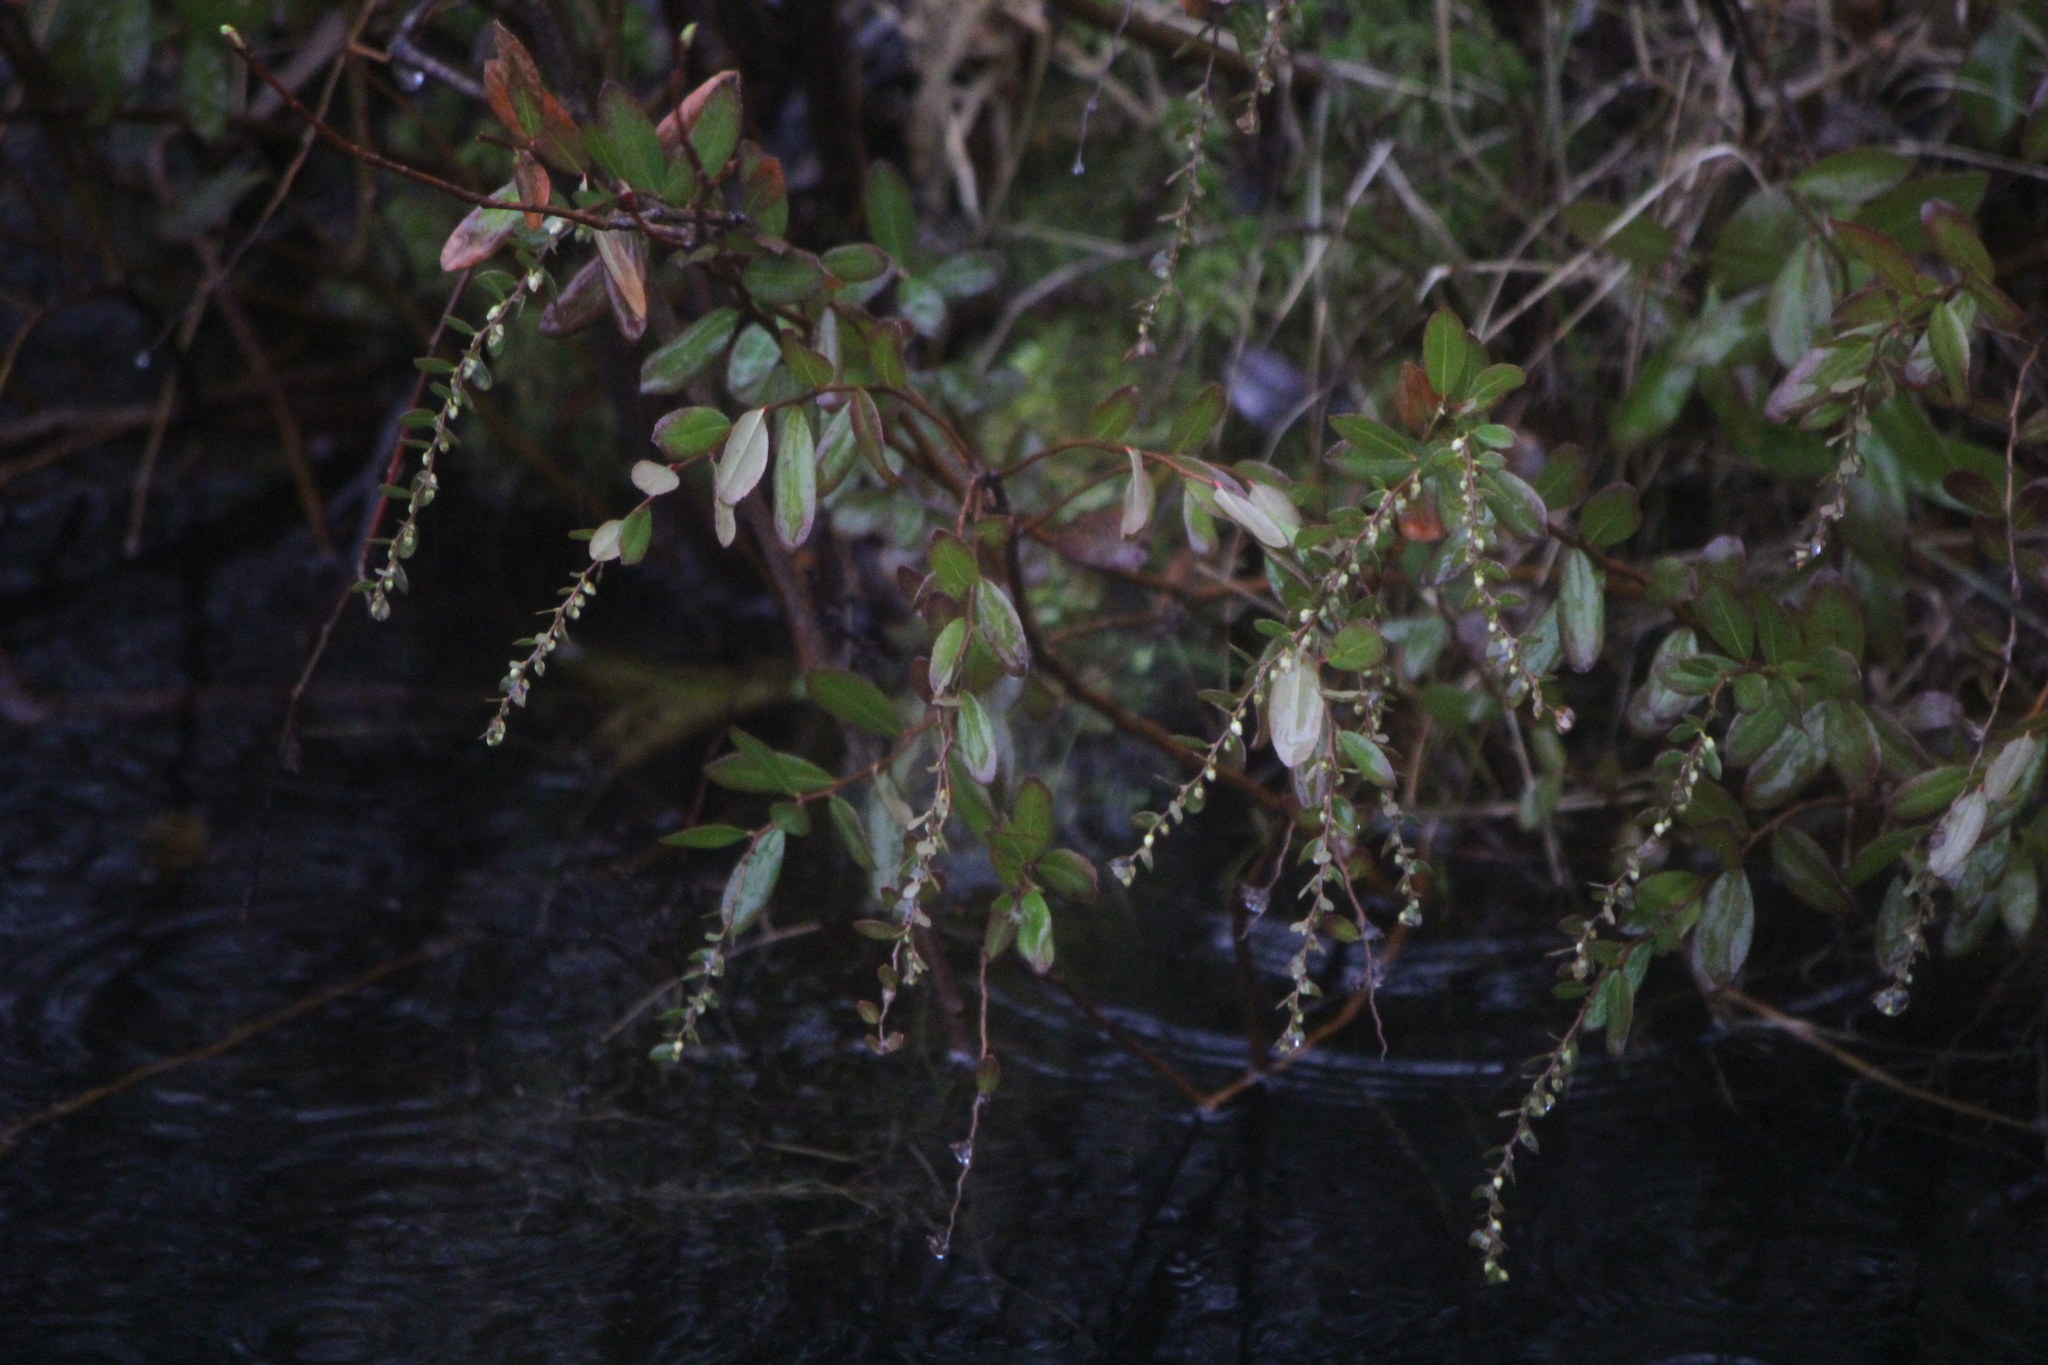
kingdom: Plantae
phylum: Tracheophyta
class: Magnoliopsida
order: Ericales
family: Ericaceae
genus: Chamaedaphne
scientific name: Chamaedaphne calyculata
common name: Leatherleaf
